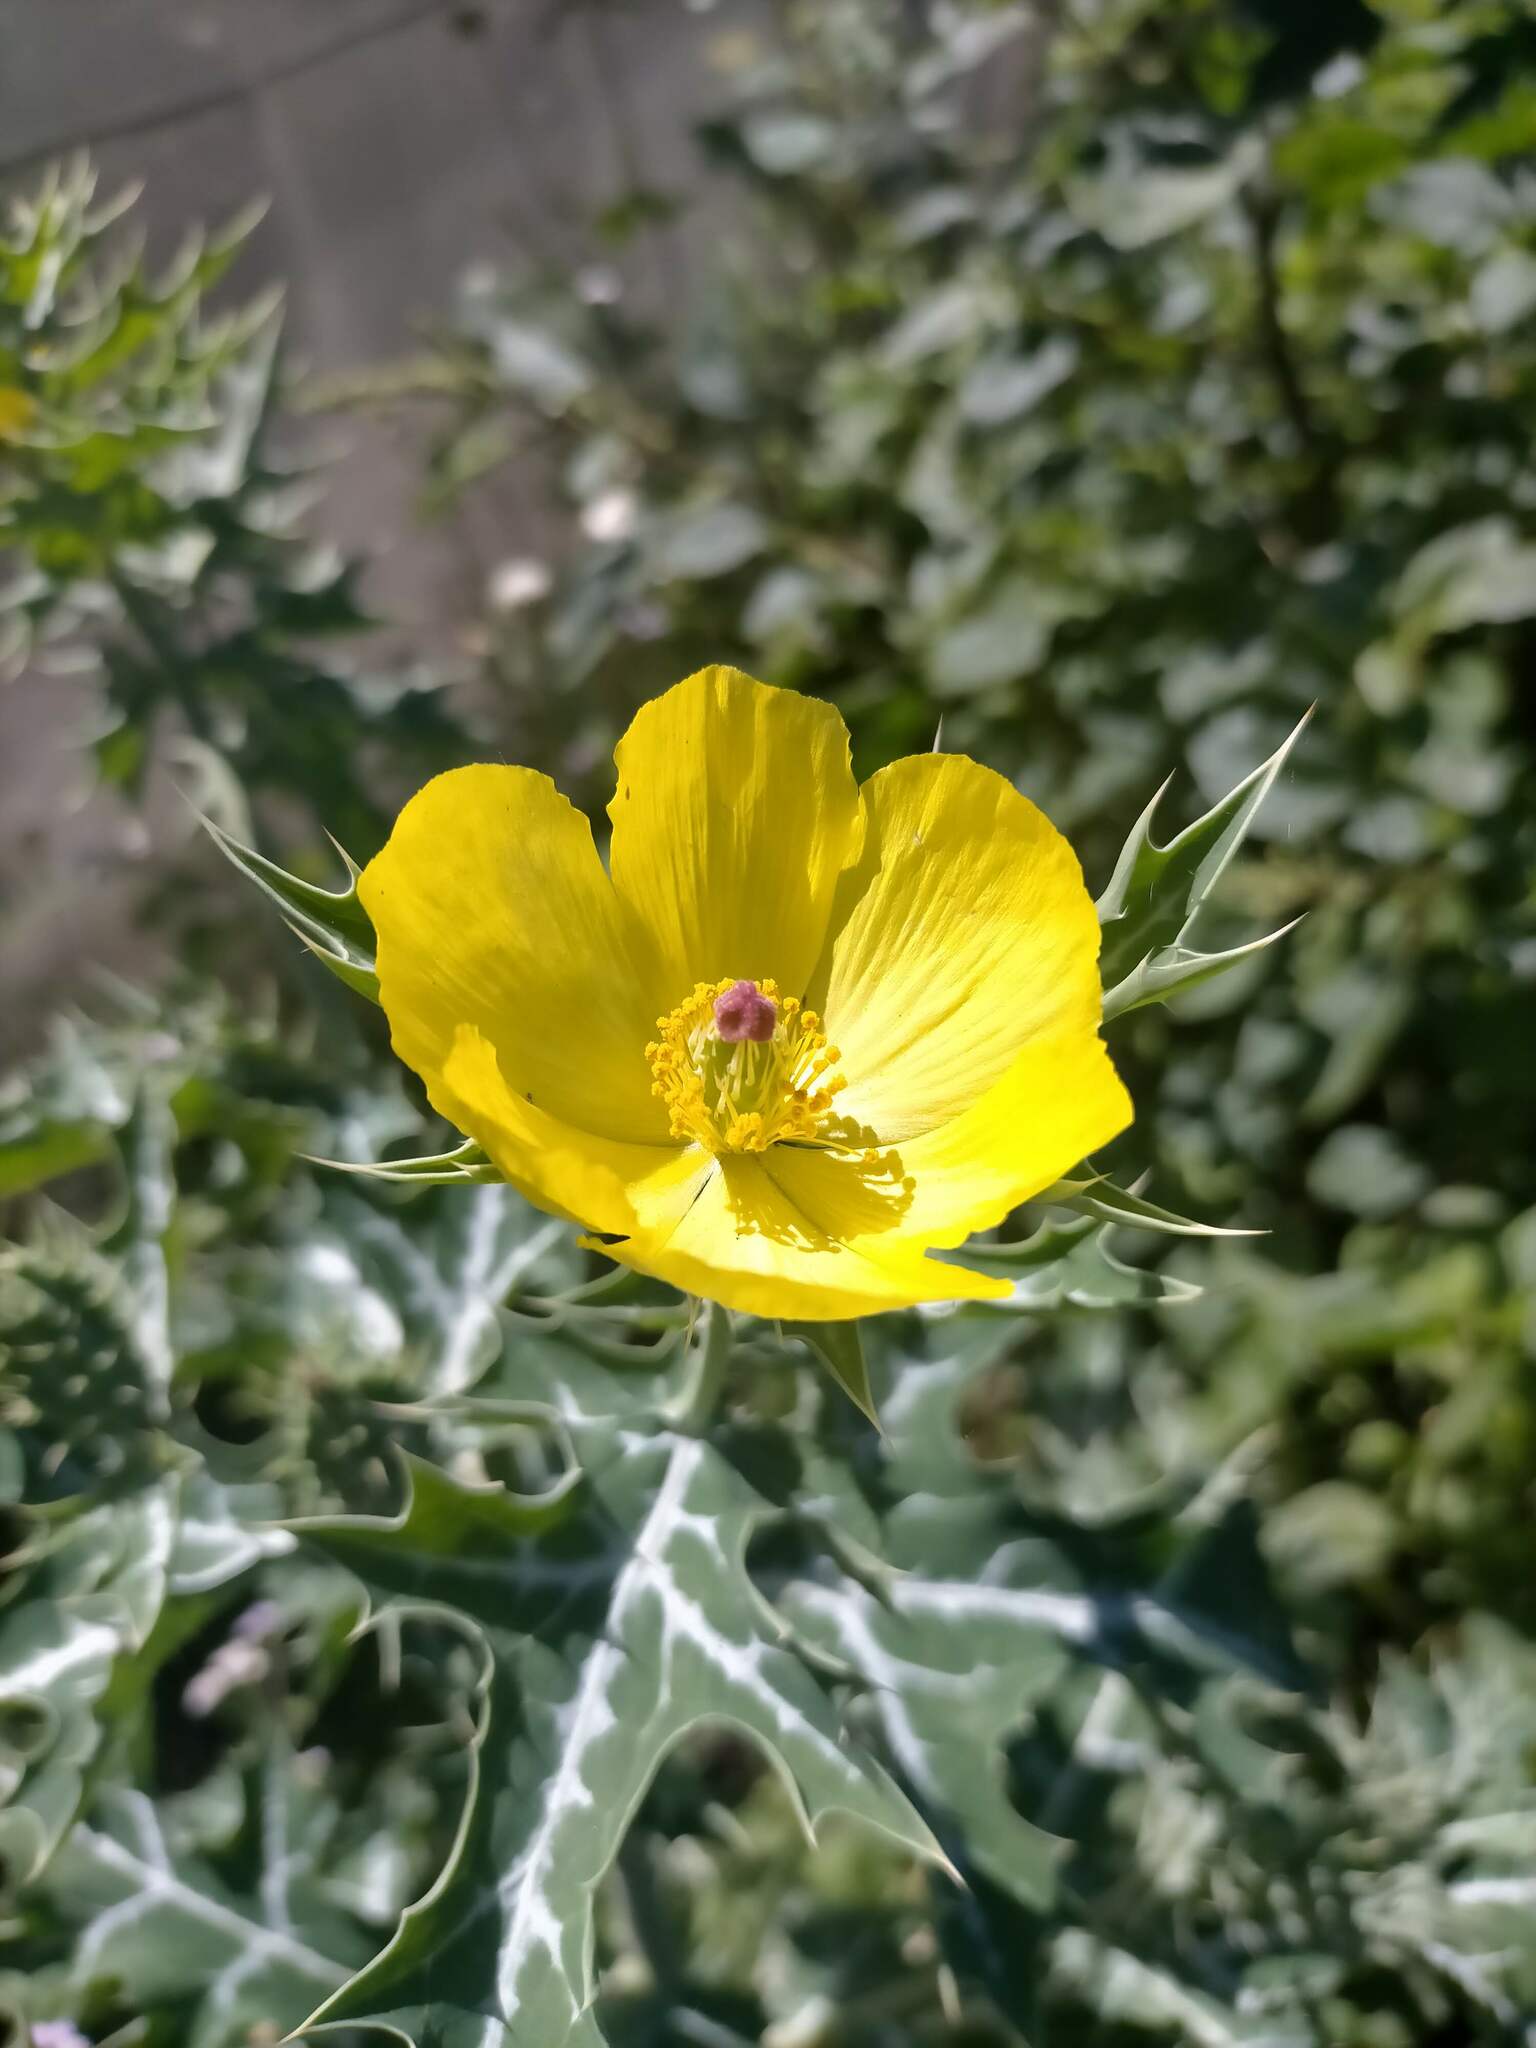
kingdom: Plantae
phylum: Tracheophyta
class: Magnoliopsida
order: Ranunculales
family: Papaveraceae
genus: Argemone
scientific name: Argemone mexicana
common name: Mexican poppy
